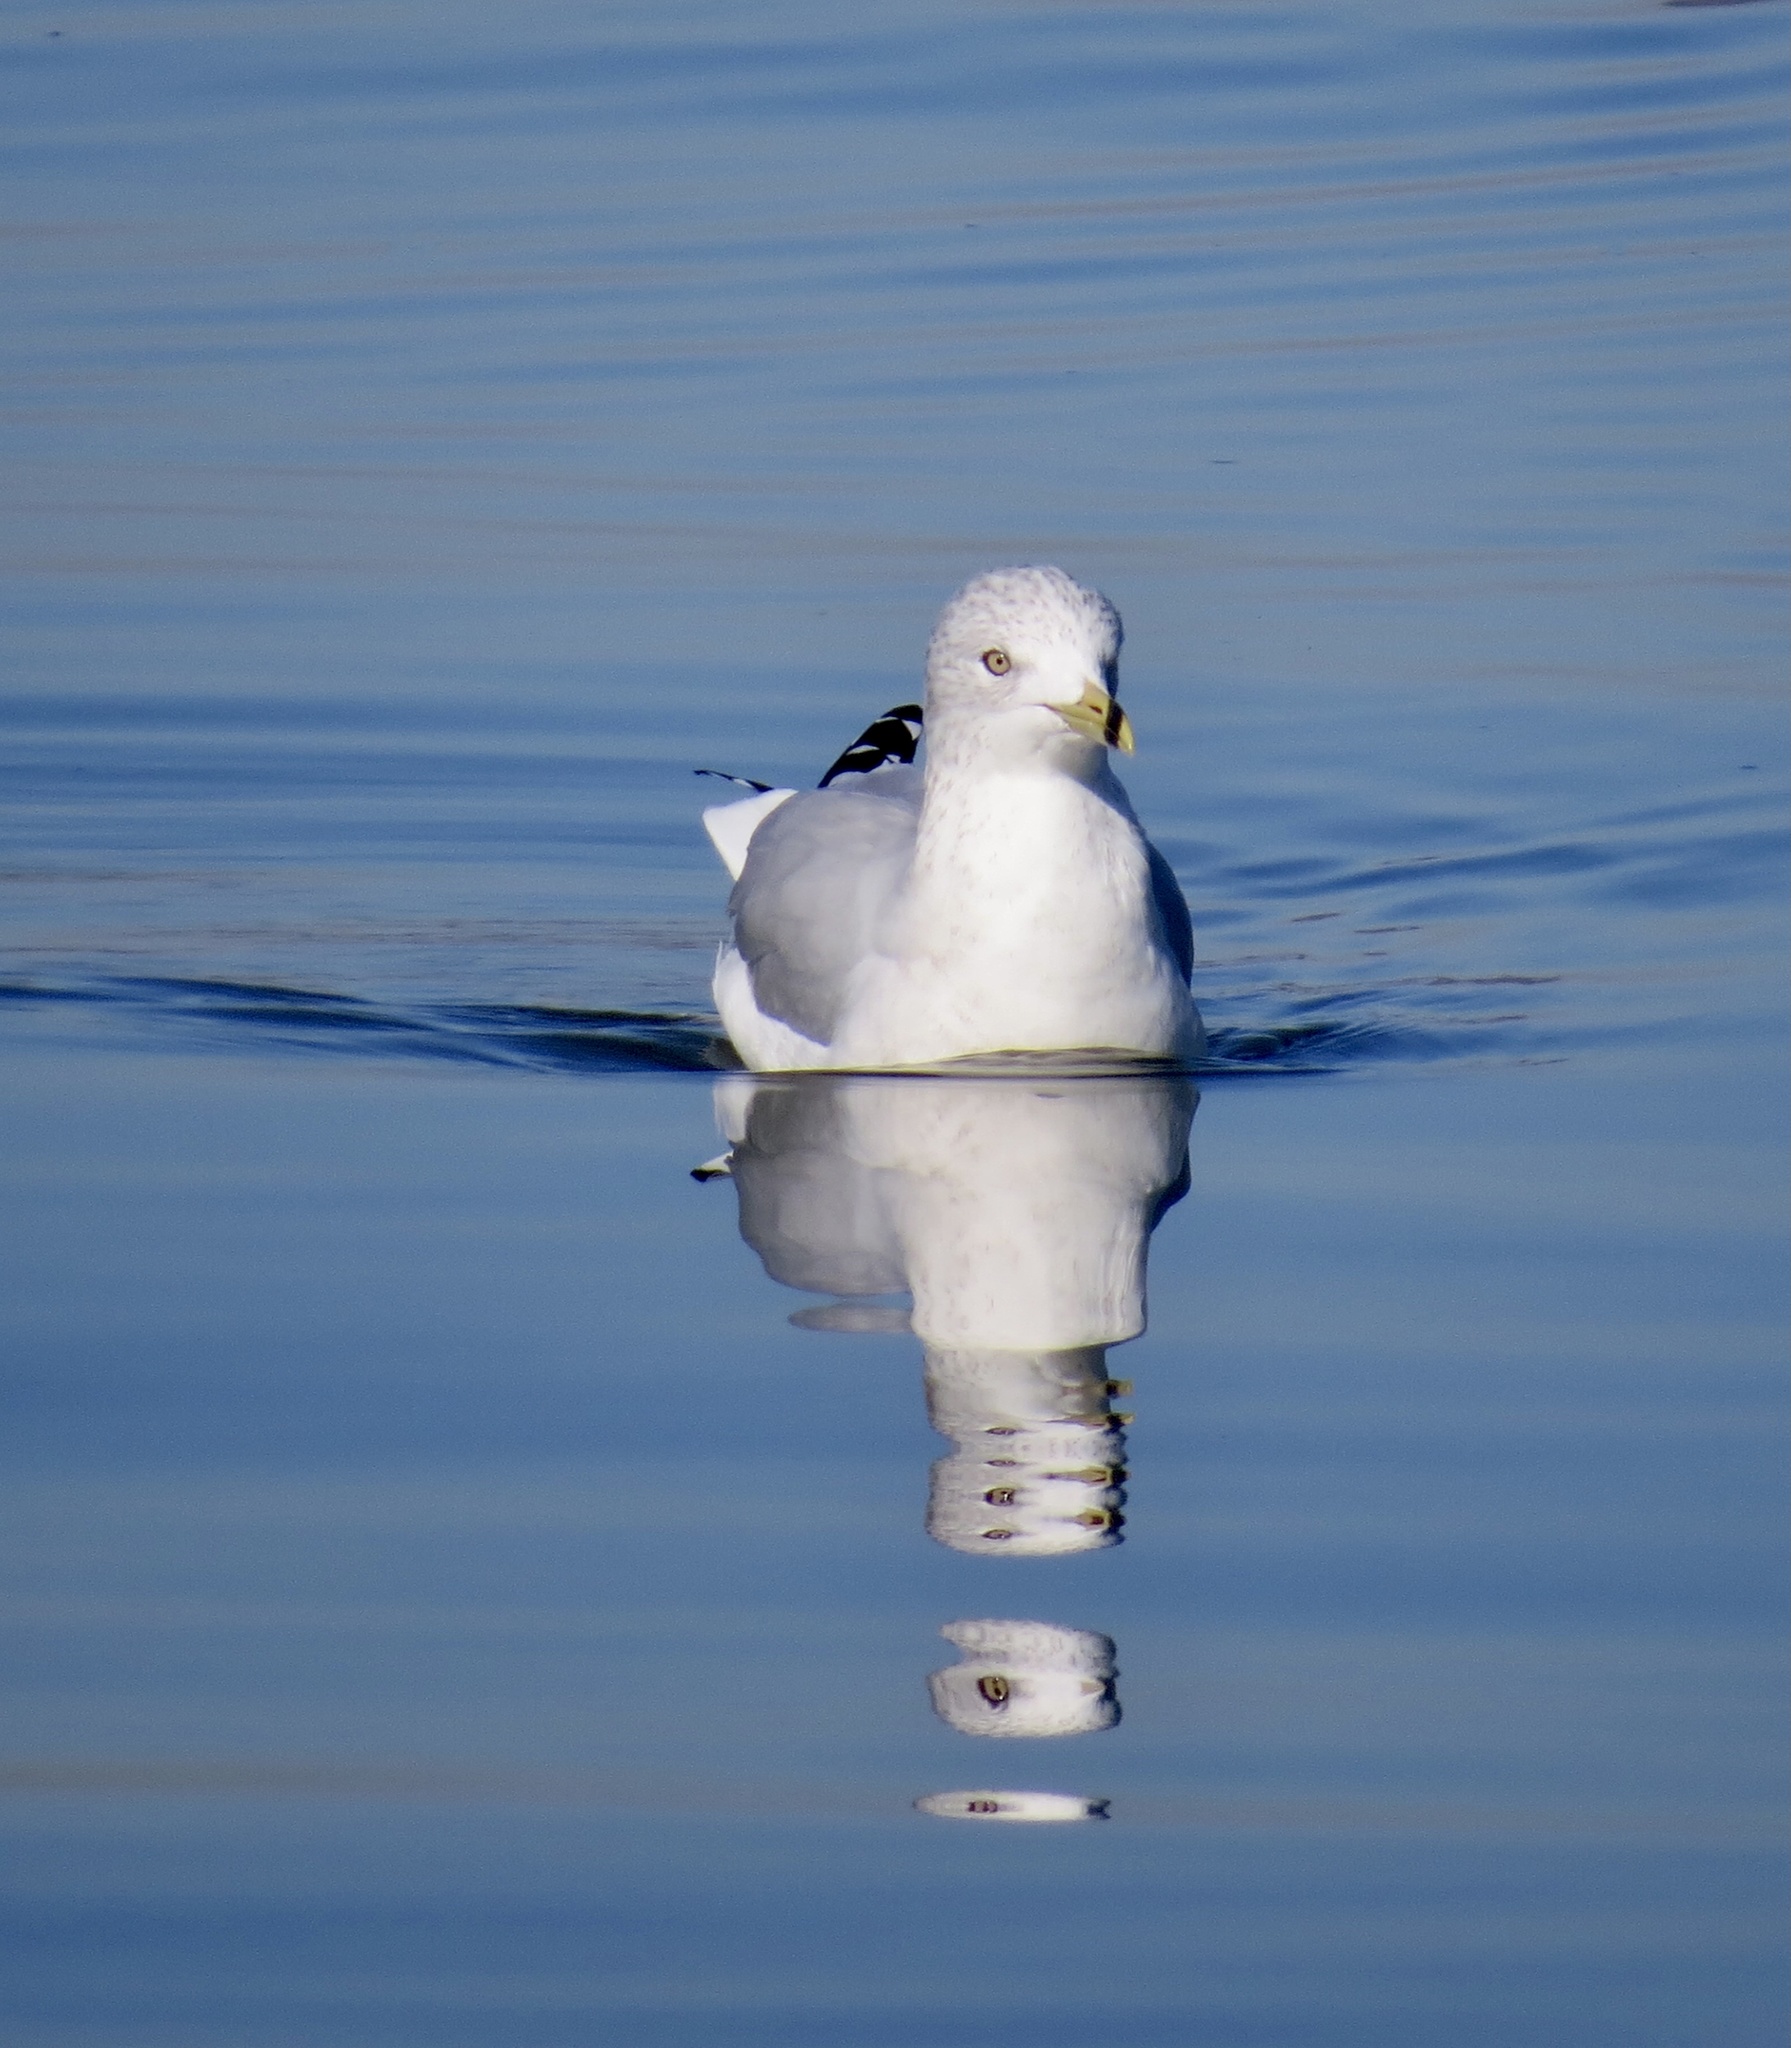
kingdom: Animalia
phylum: Chordata
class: Aves
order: Charadriiformes
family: Laridae
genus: Larus
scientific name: Larus delawarensis
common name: Ring-billed gull
